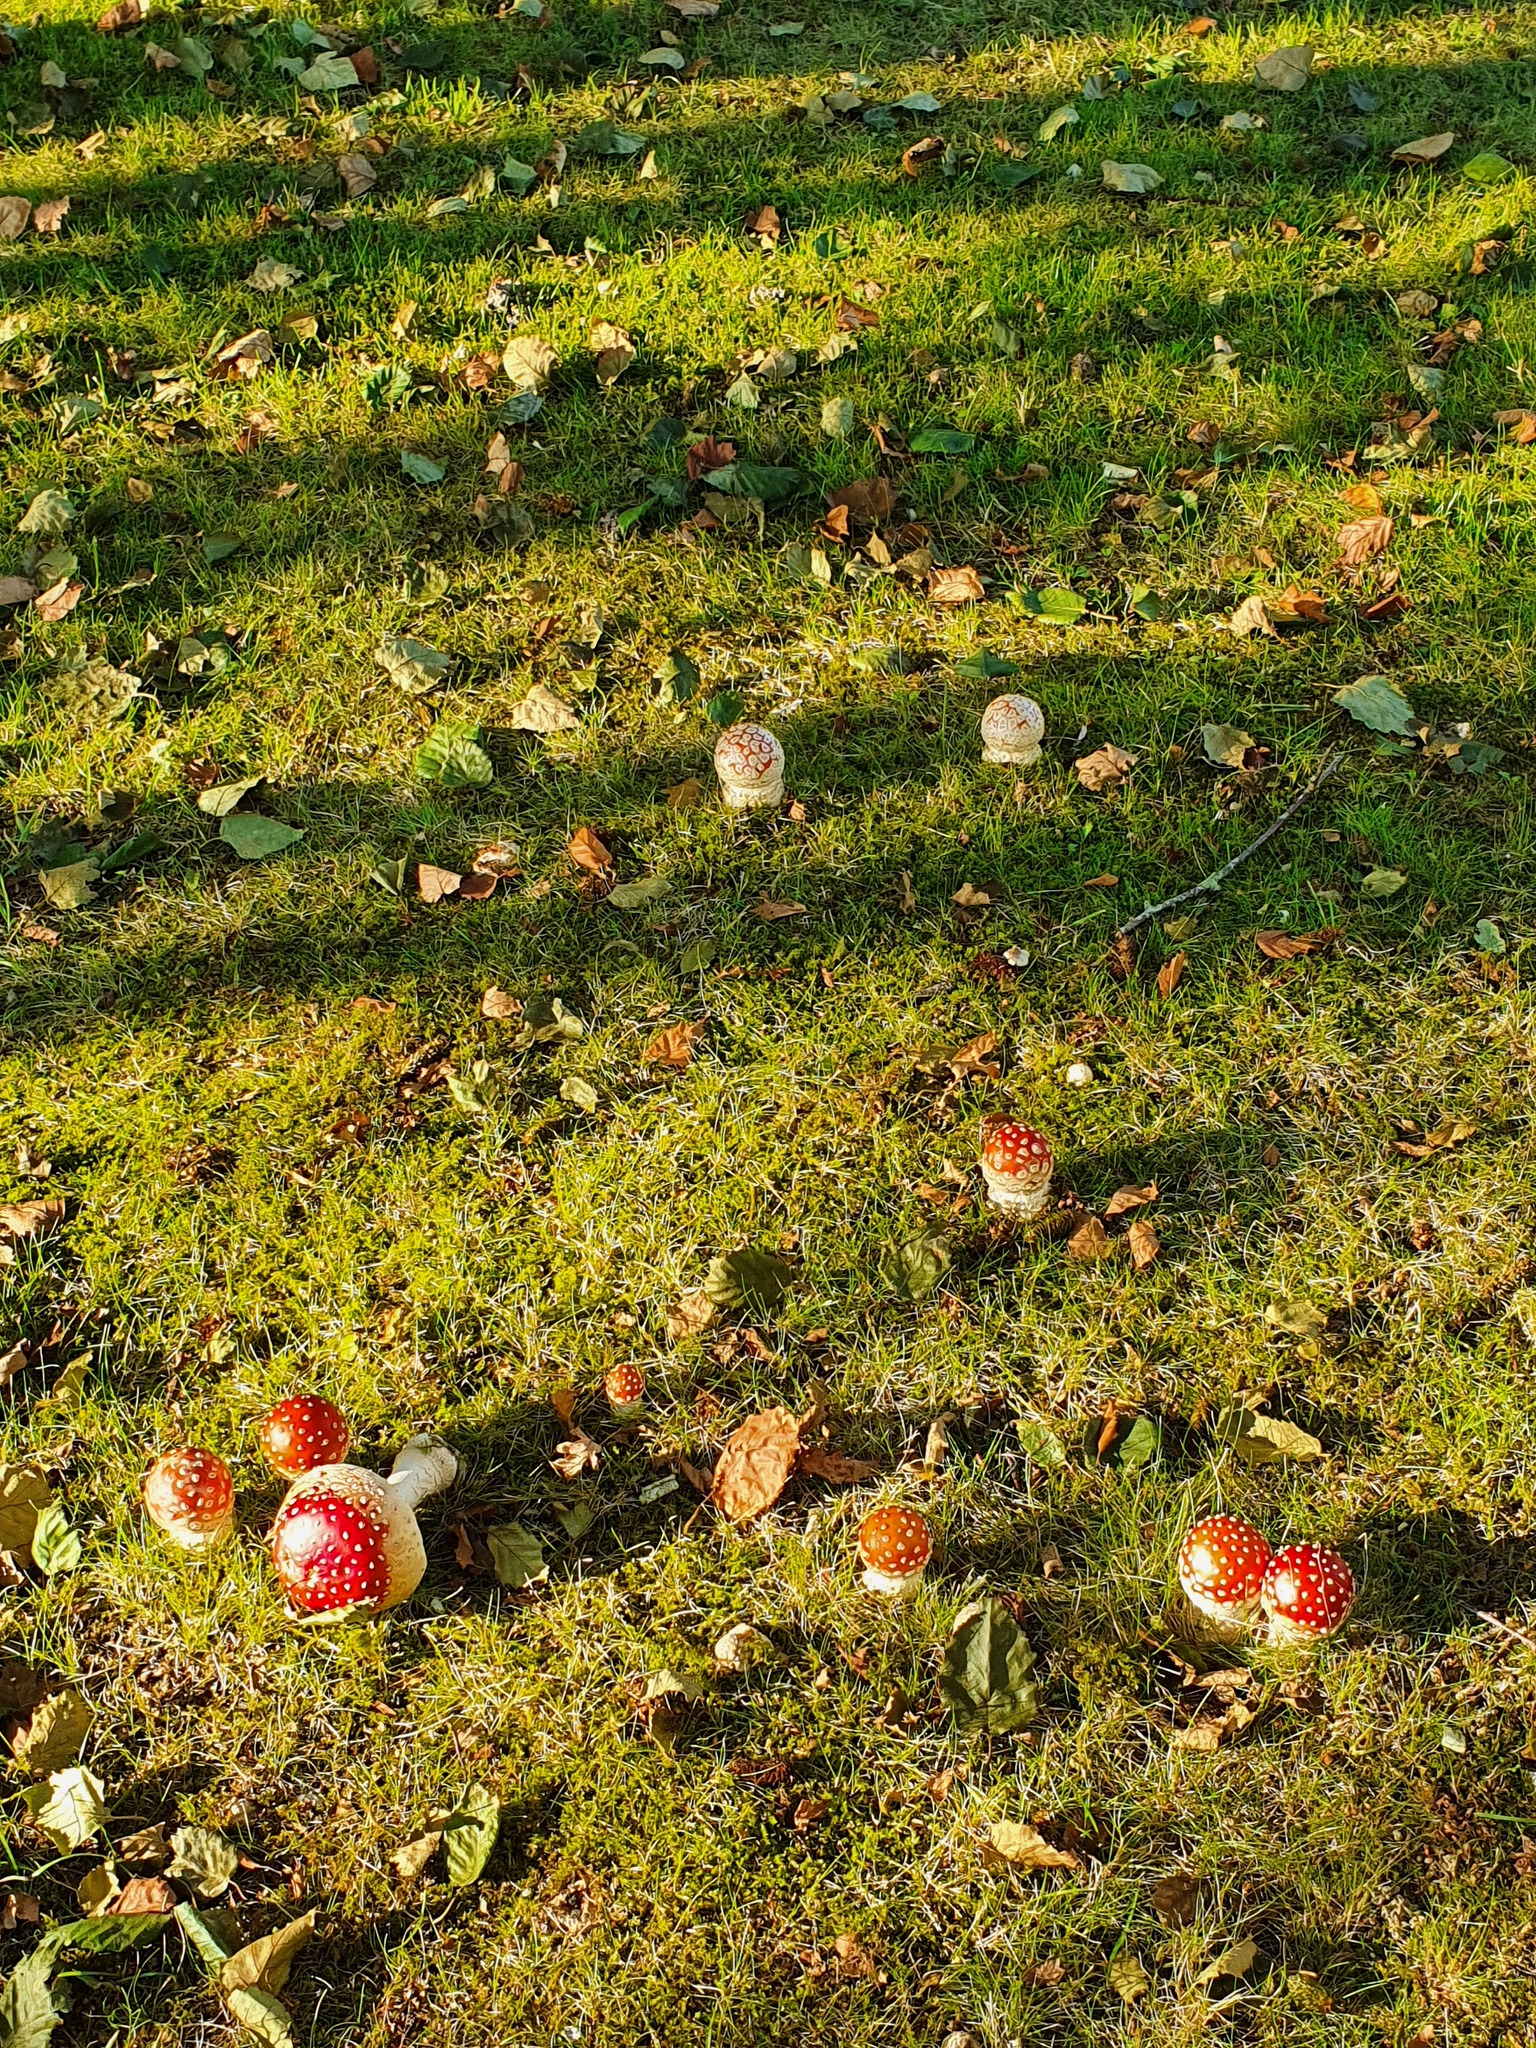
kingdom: Fungi
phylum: Basidiomycota
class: Agaricomycetes
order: Agaricales
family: Amanitaceae
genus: Amanita
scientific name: Amanita muscaria
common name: Fly agaric
